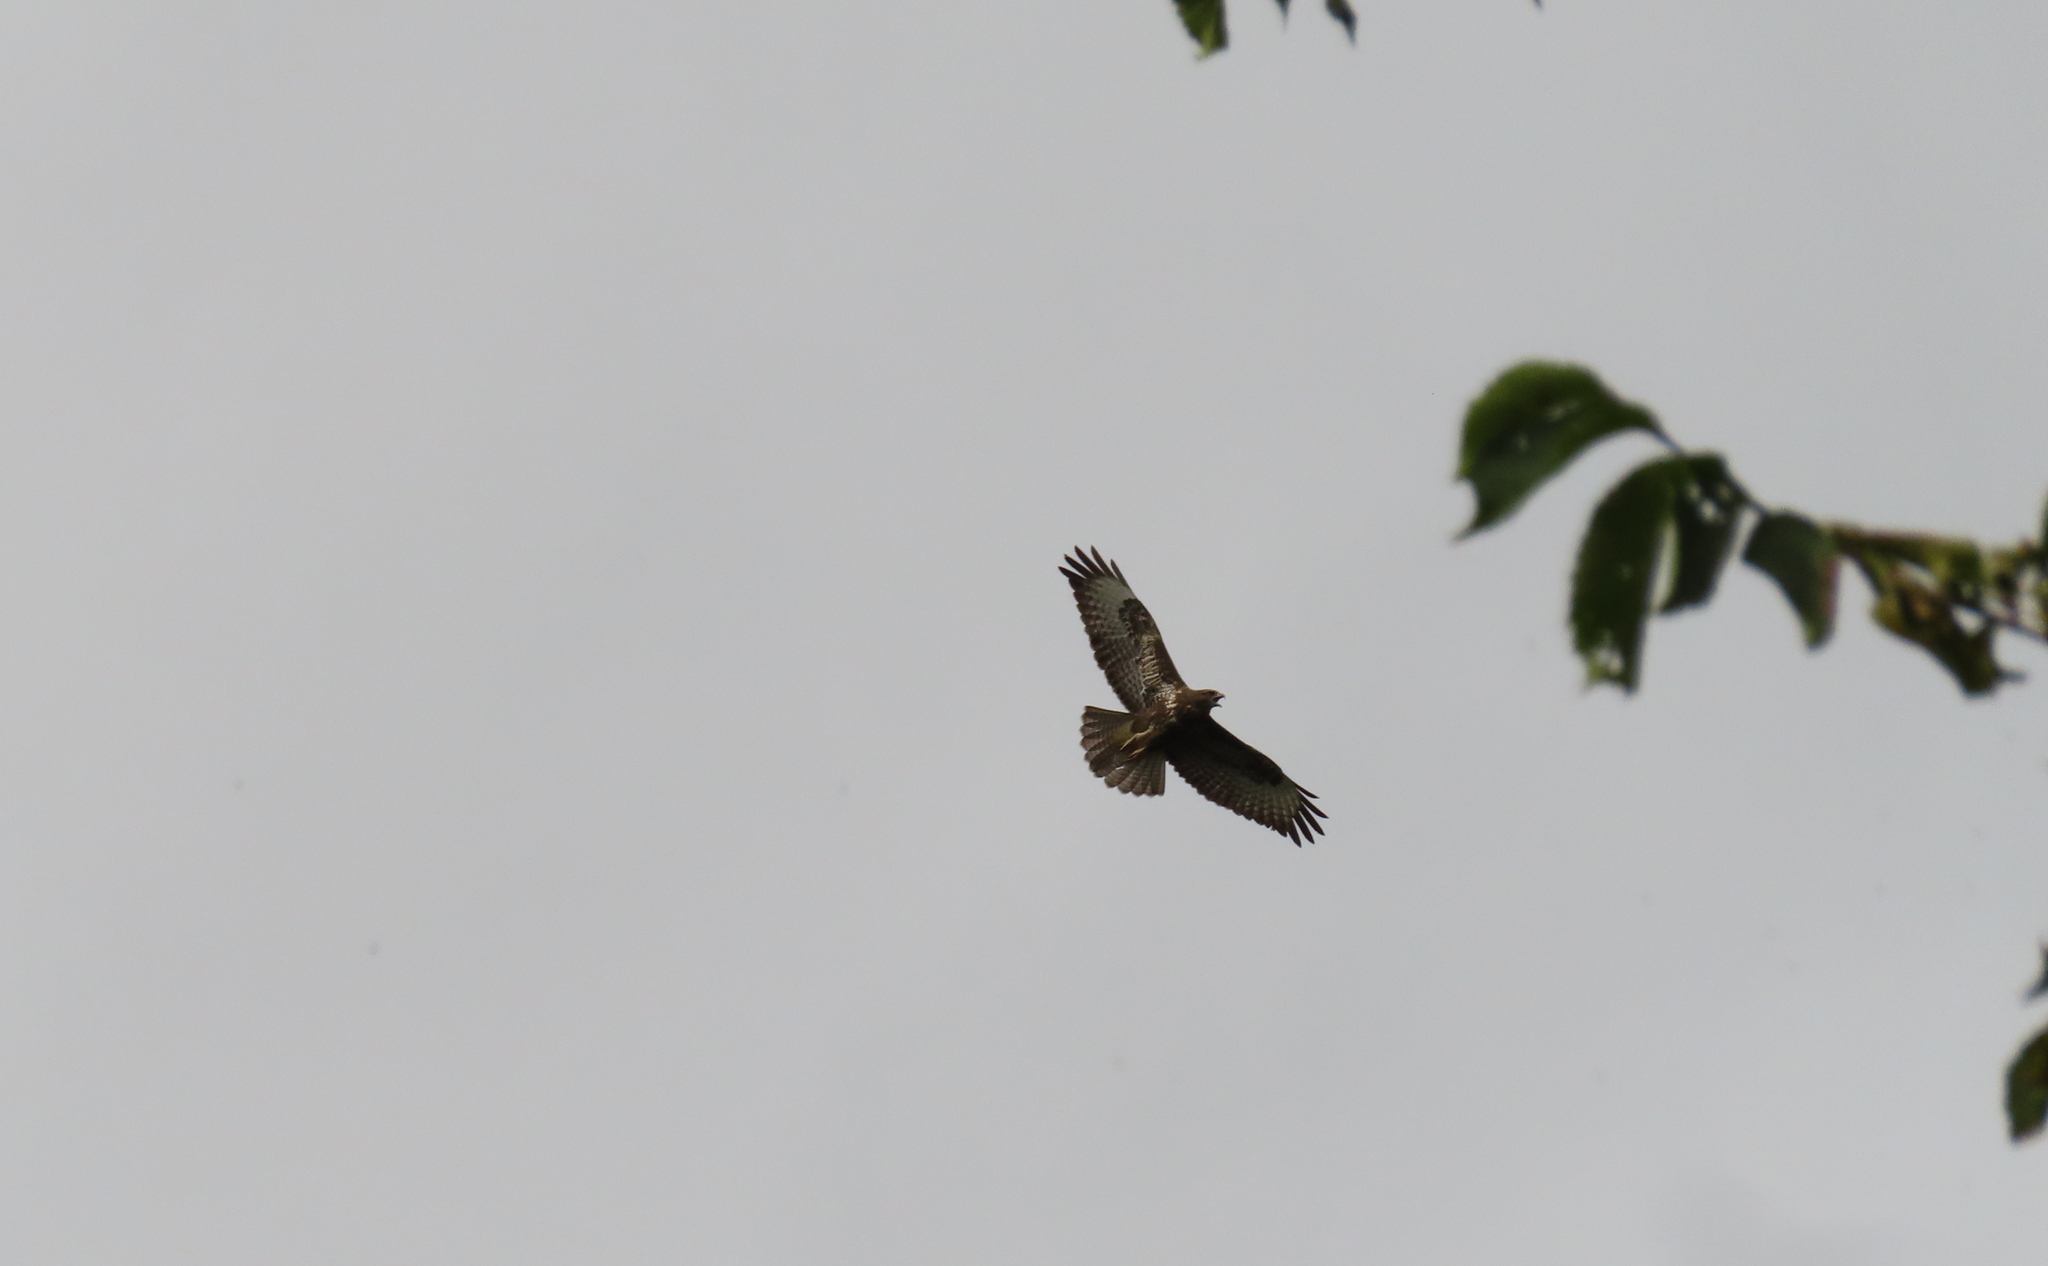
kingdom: Animalia
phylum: Chordata
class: Aves
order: Accipitriformes
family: Accipitridae
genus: Buteo
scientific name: Buteo buteo
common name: Common buzzard
